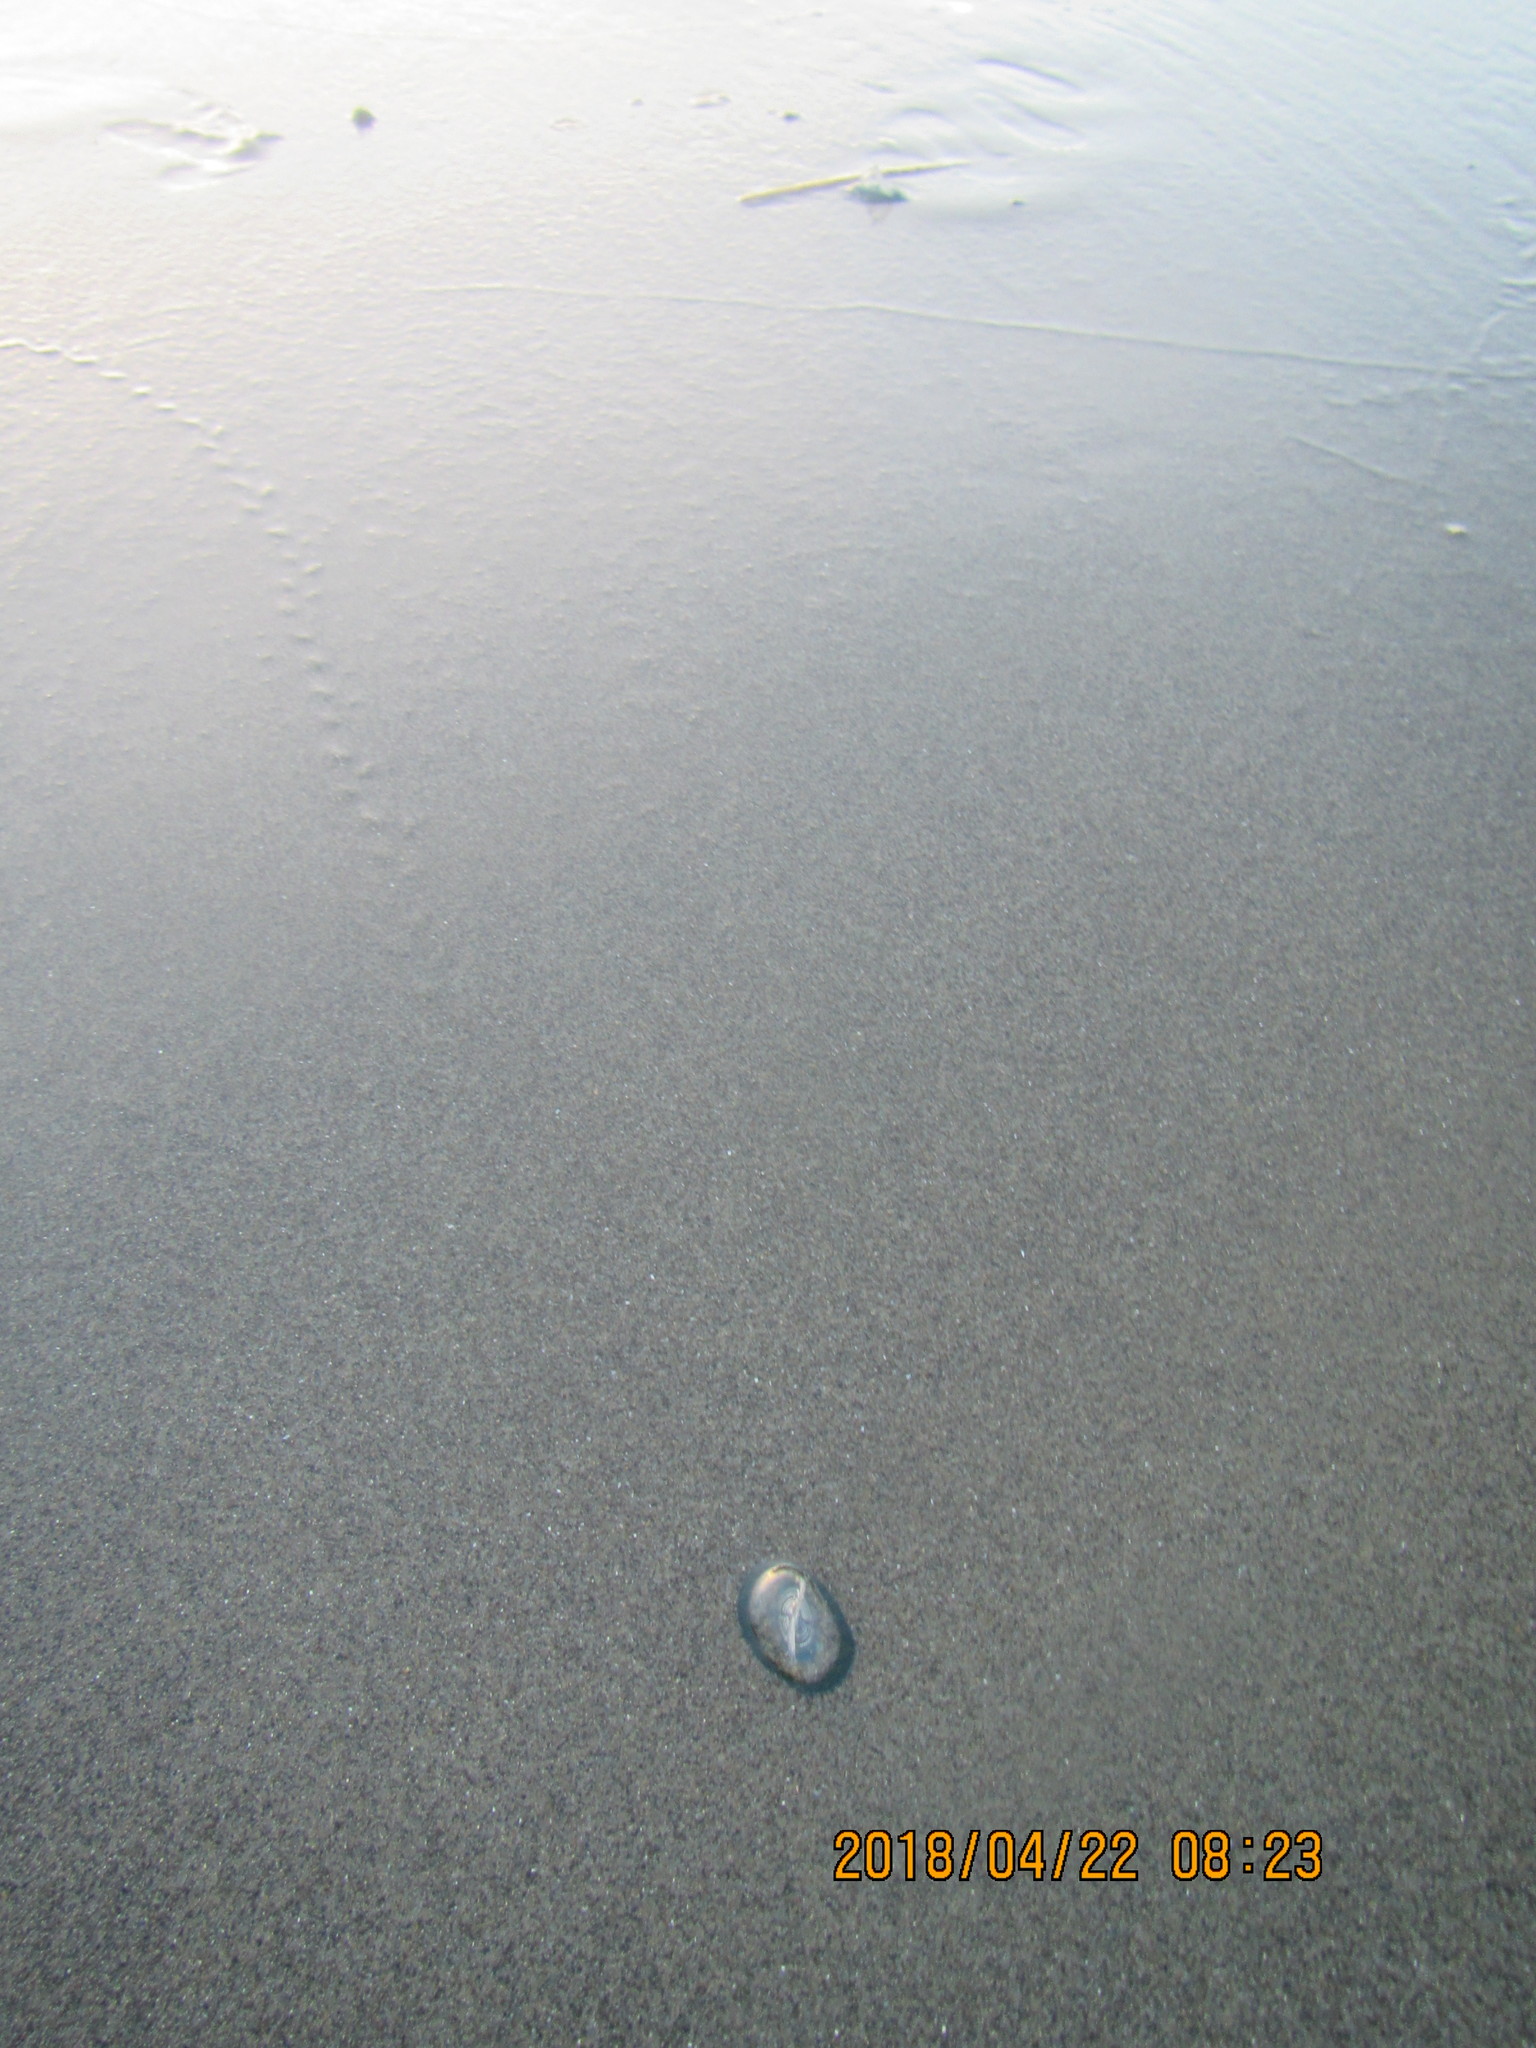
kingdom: Animalia
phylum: Cnidaria
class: Hydrozoa
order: Anthoathecata
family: Porpitidae
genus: Velella
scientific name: Velella velella
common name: By-the-wind-sailor
